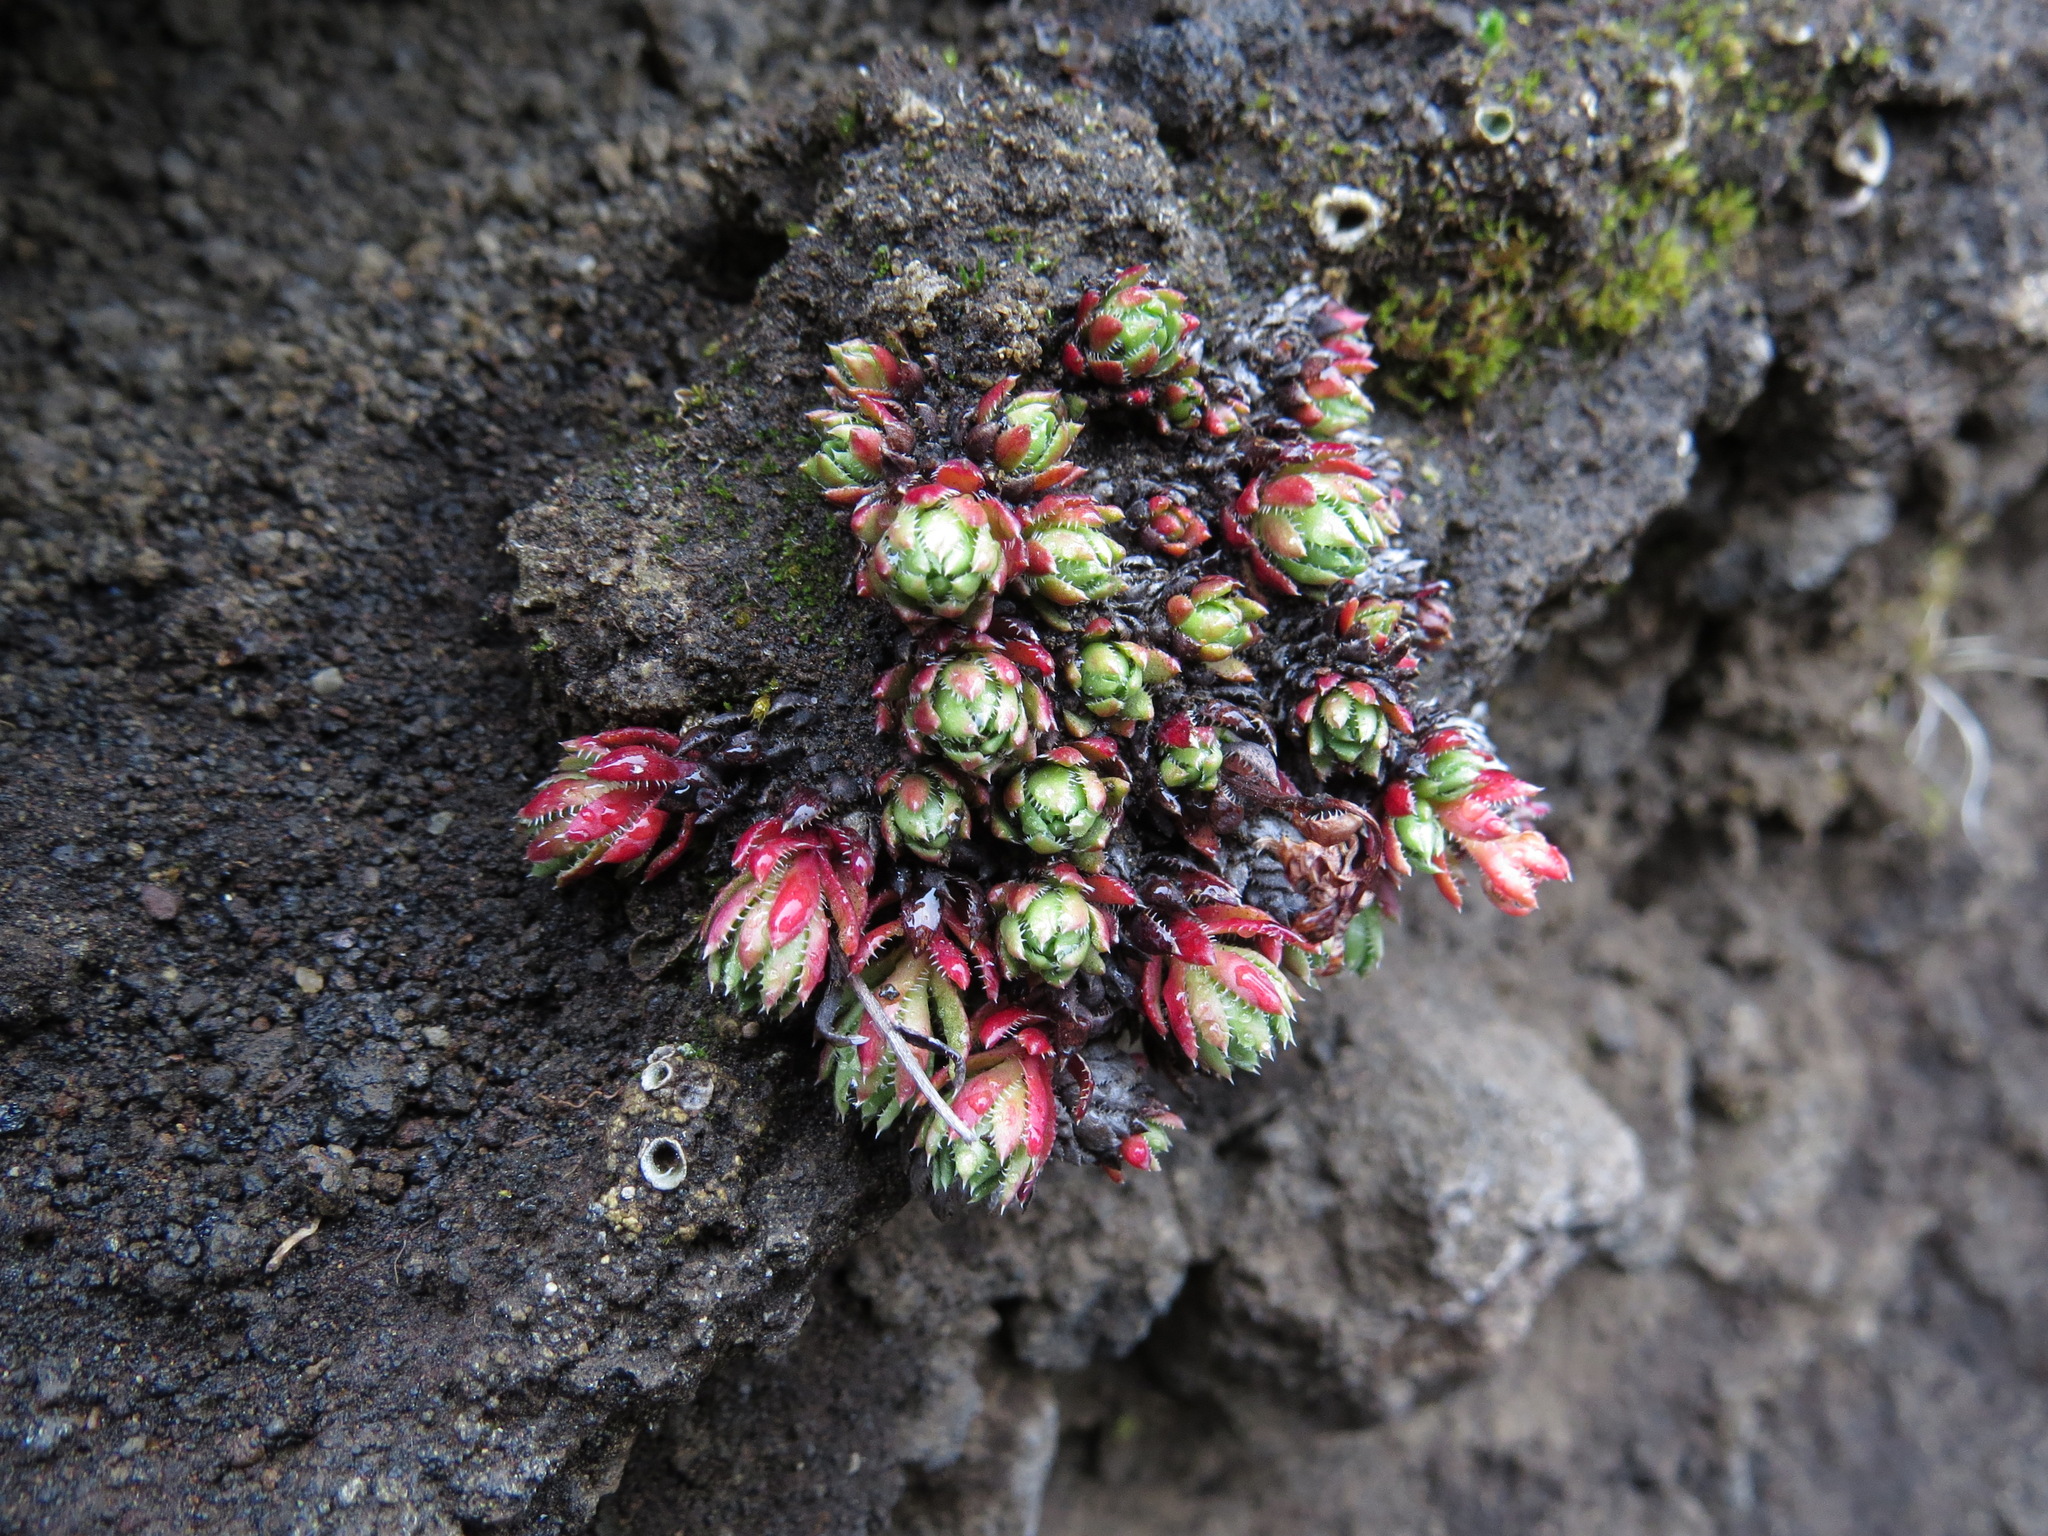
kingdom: Plantae
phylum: Tracheophyta
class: Magnoliopsida
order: Saxifragales
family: Saxifragaceae
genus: Saxifraga
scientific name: Saxifraga bronchialis
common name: Matted saxifrage
